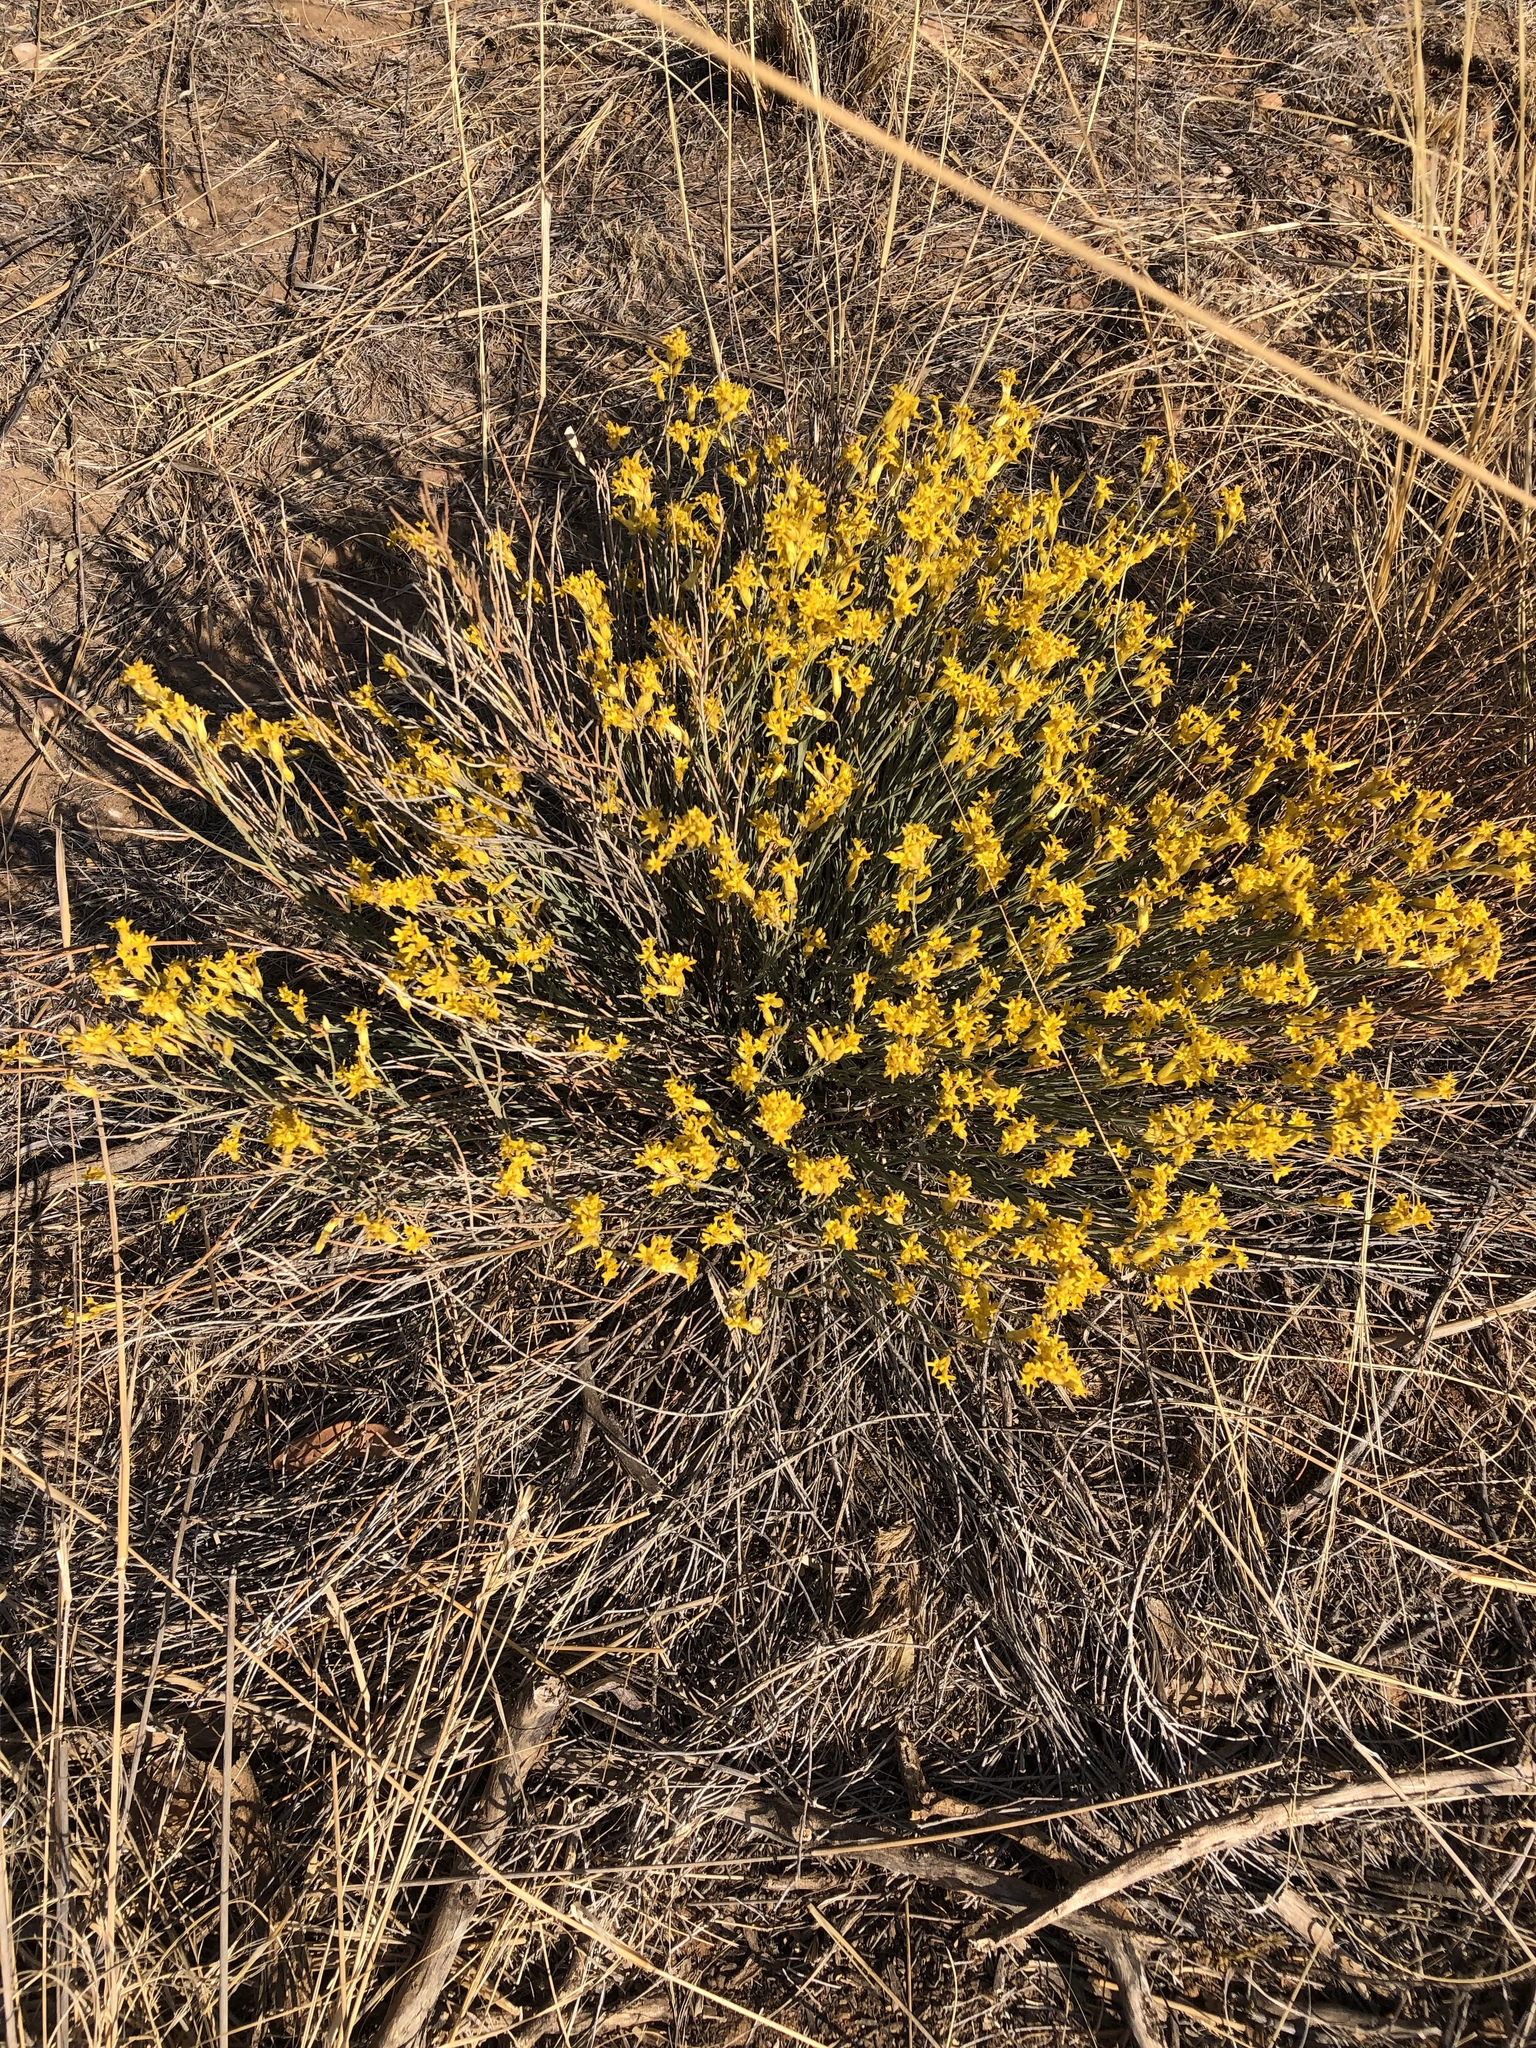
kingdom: Plantae
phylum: Tracheophyta
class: Magnoliopsida
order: Malvales
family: Thymelaeaceae
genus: Gnidia
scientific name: Gnidia polycephala
